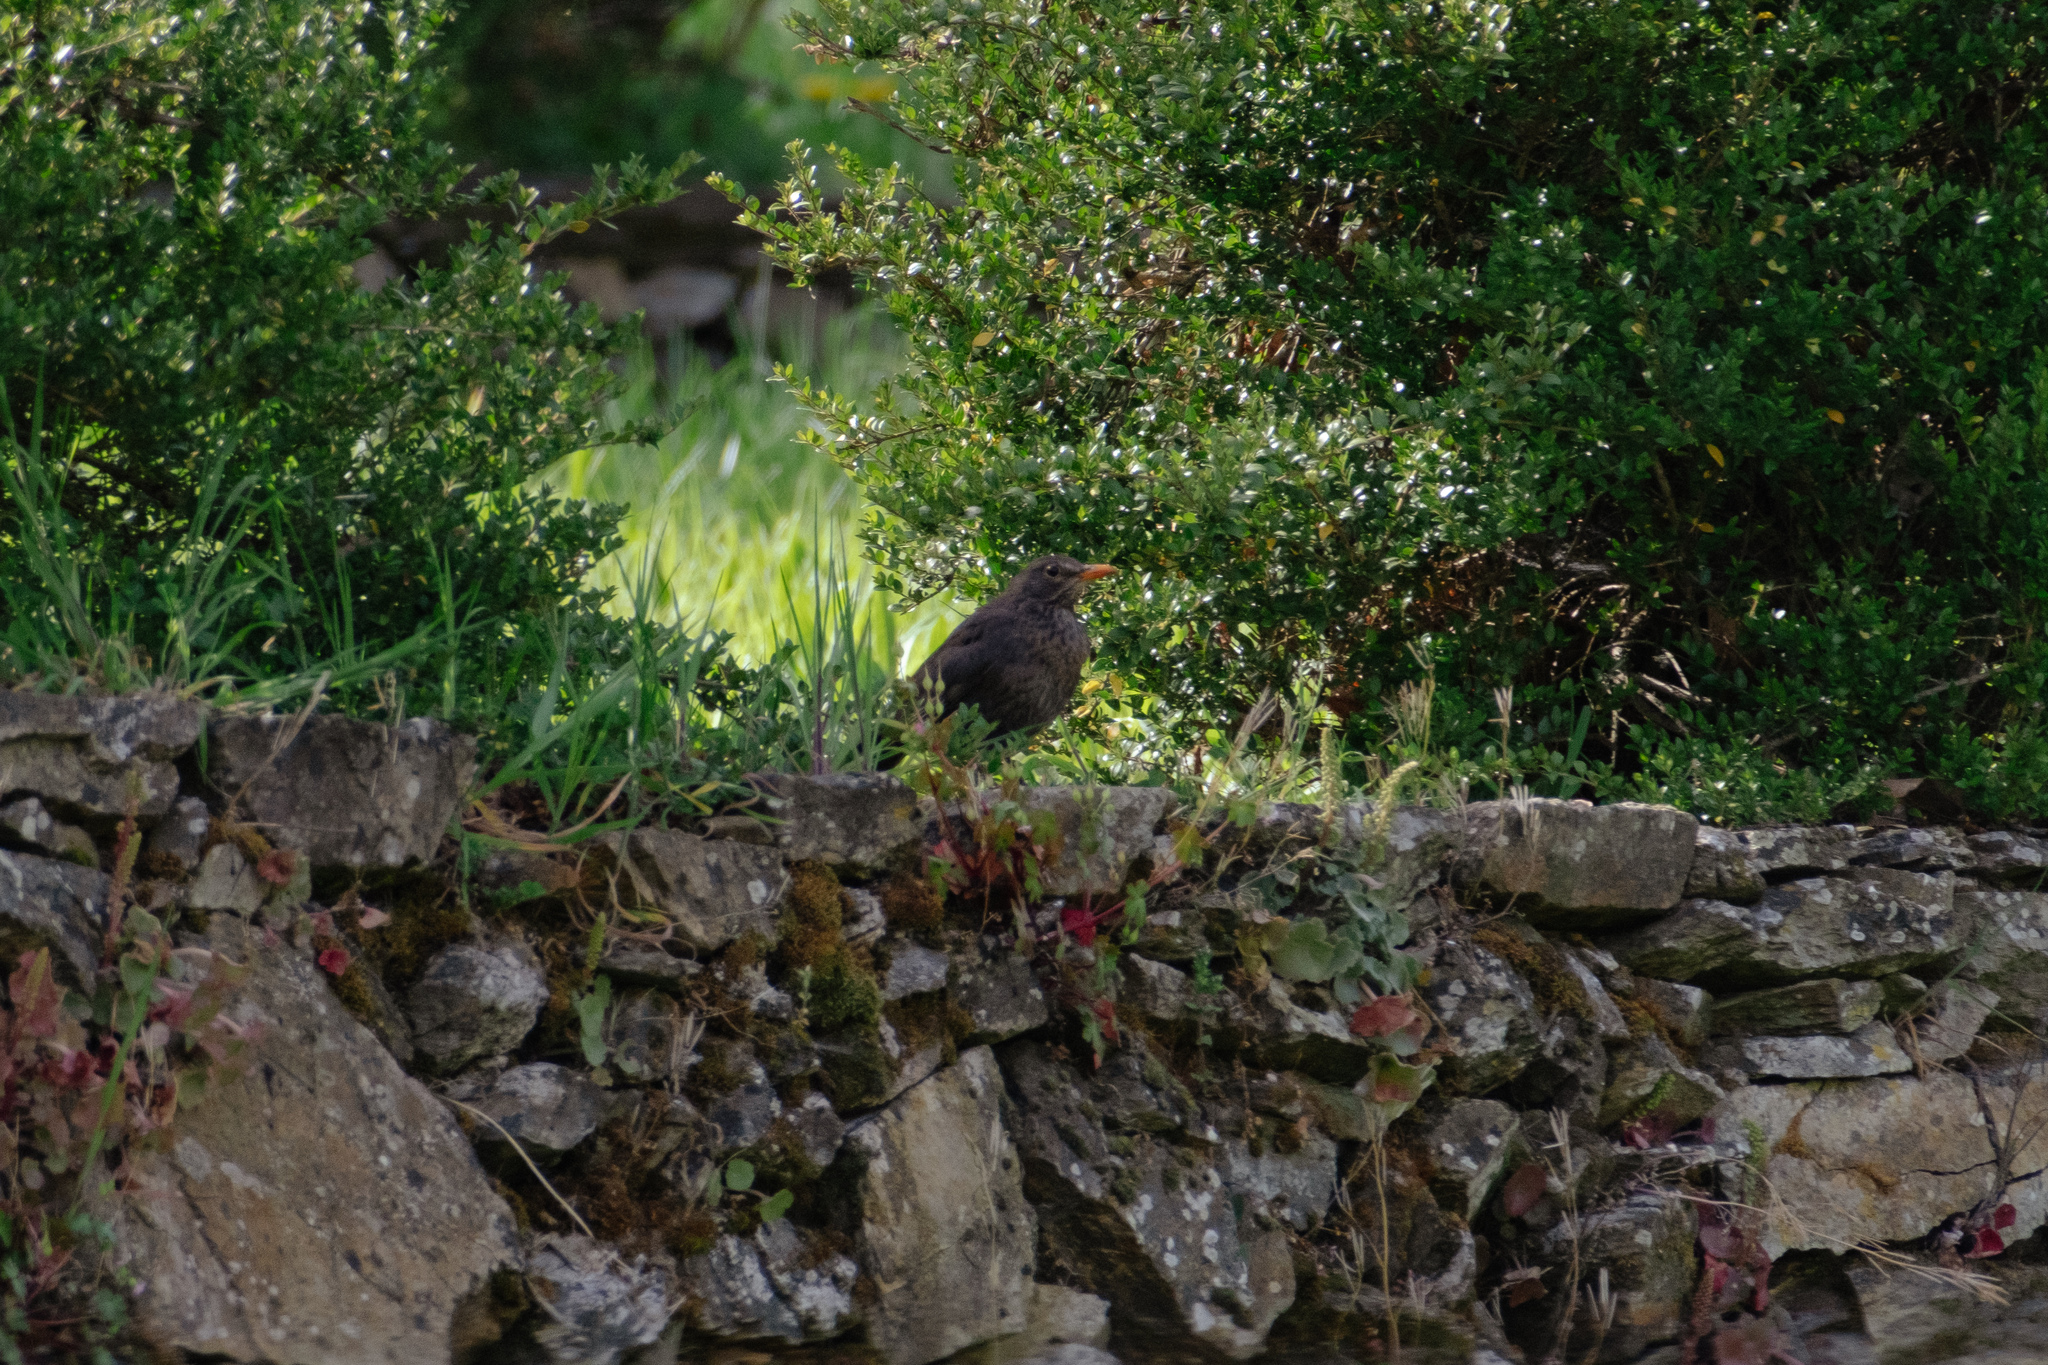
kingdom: Animalia
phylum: Chordata
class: Aves
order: Passeriformes
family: Turdidae
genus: Turdus
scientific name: Turdus merula
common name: Common blackbird
